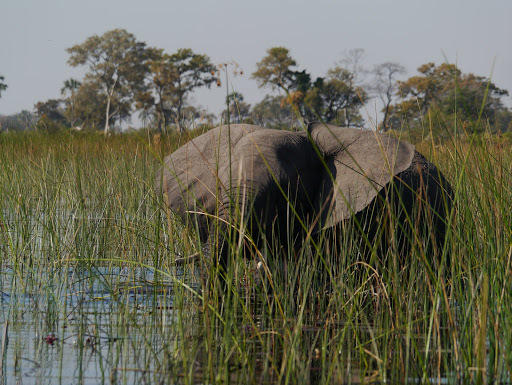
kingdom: Animalia
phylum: Chordata
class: Mammalia
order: Proboscidea
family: Elephantidae
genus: Loxodonta
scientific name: Loxodonta africana
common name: African elephant
